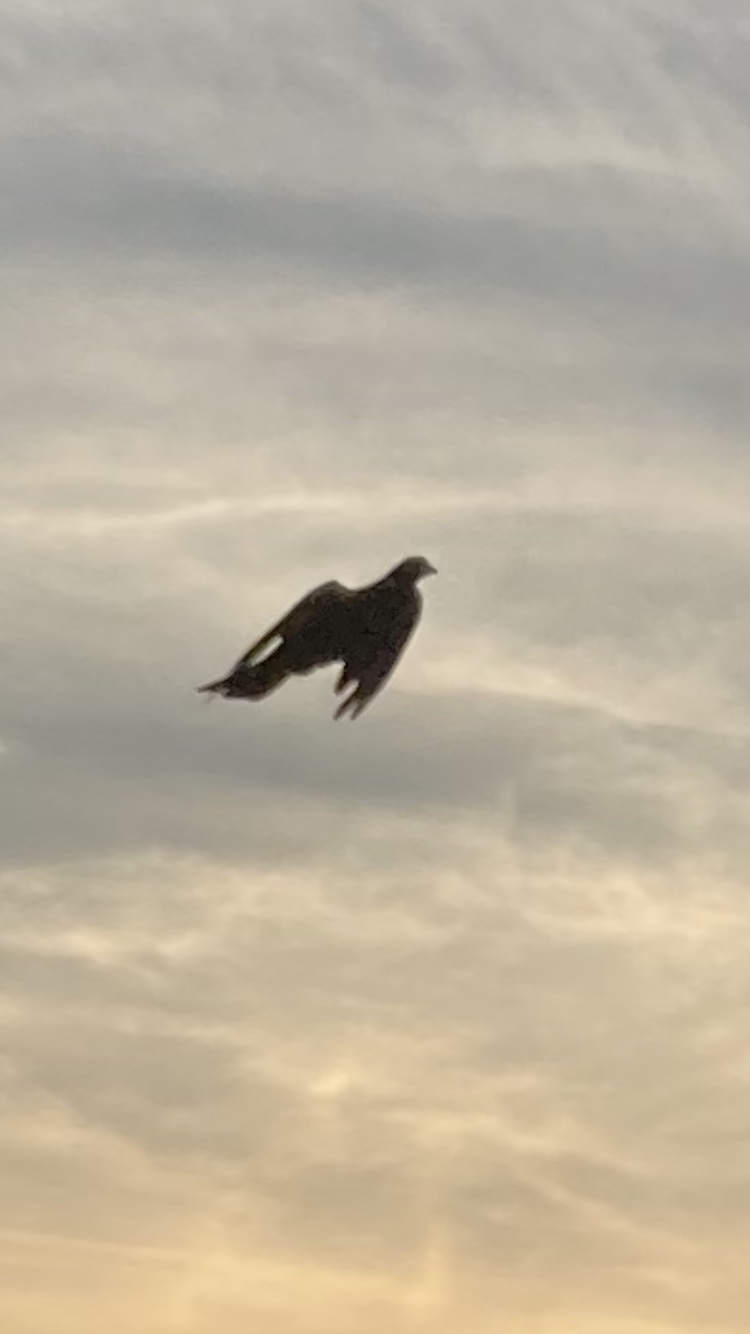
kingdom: Animalia
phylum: Chordata
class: Aves
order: Columbiformes
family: Columbidae
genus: Columba
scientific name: Columba palumbus
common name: Common wood pigeon
